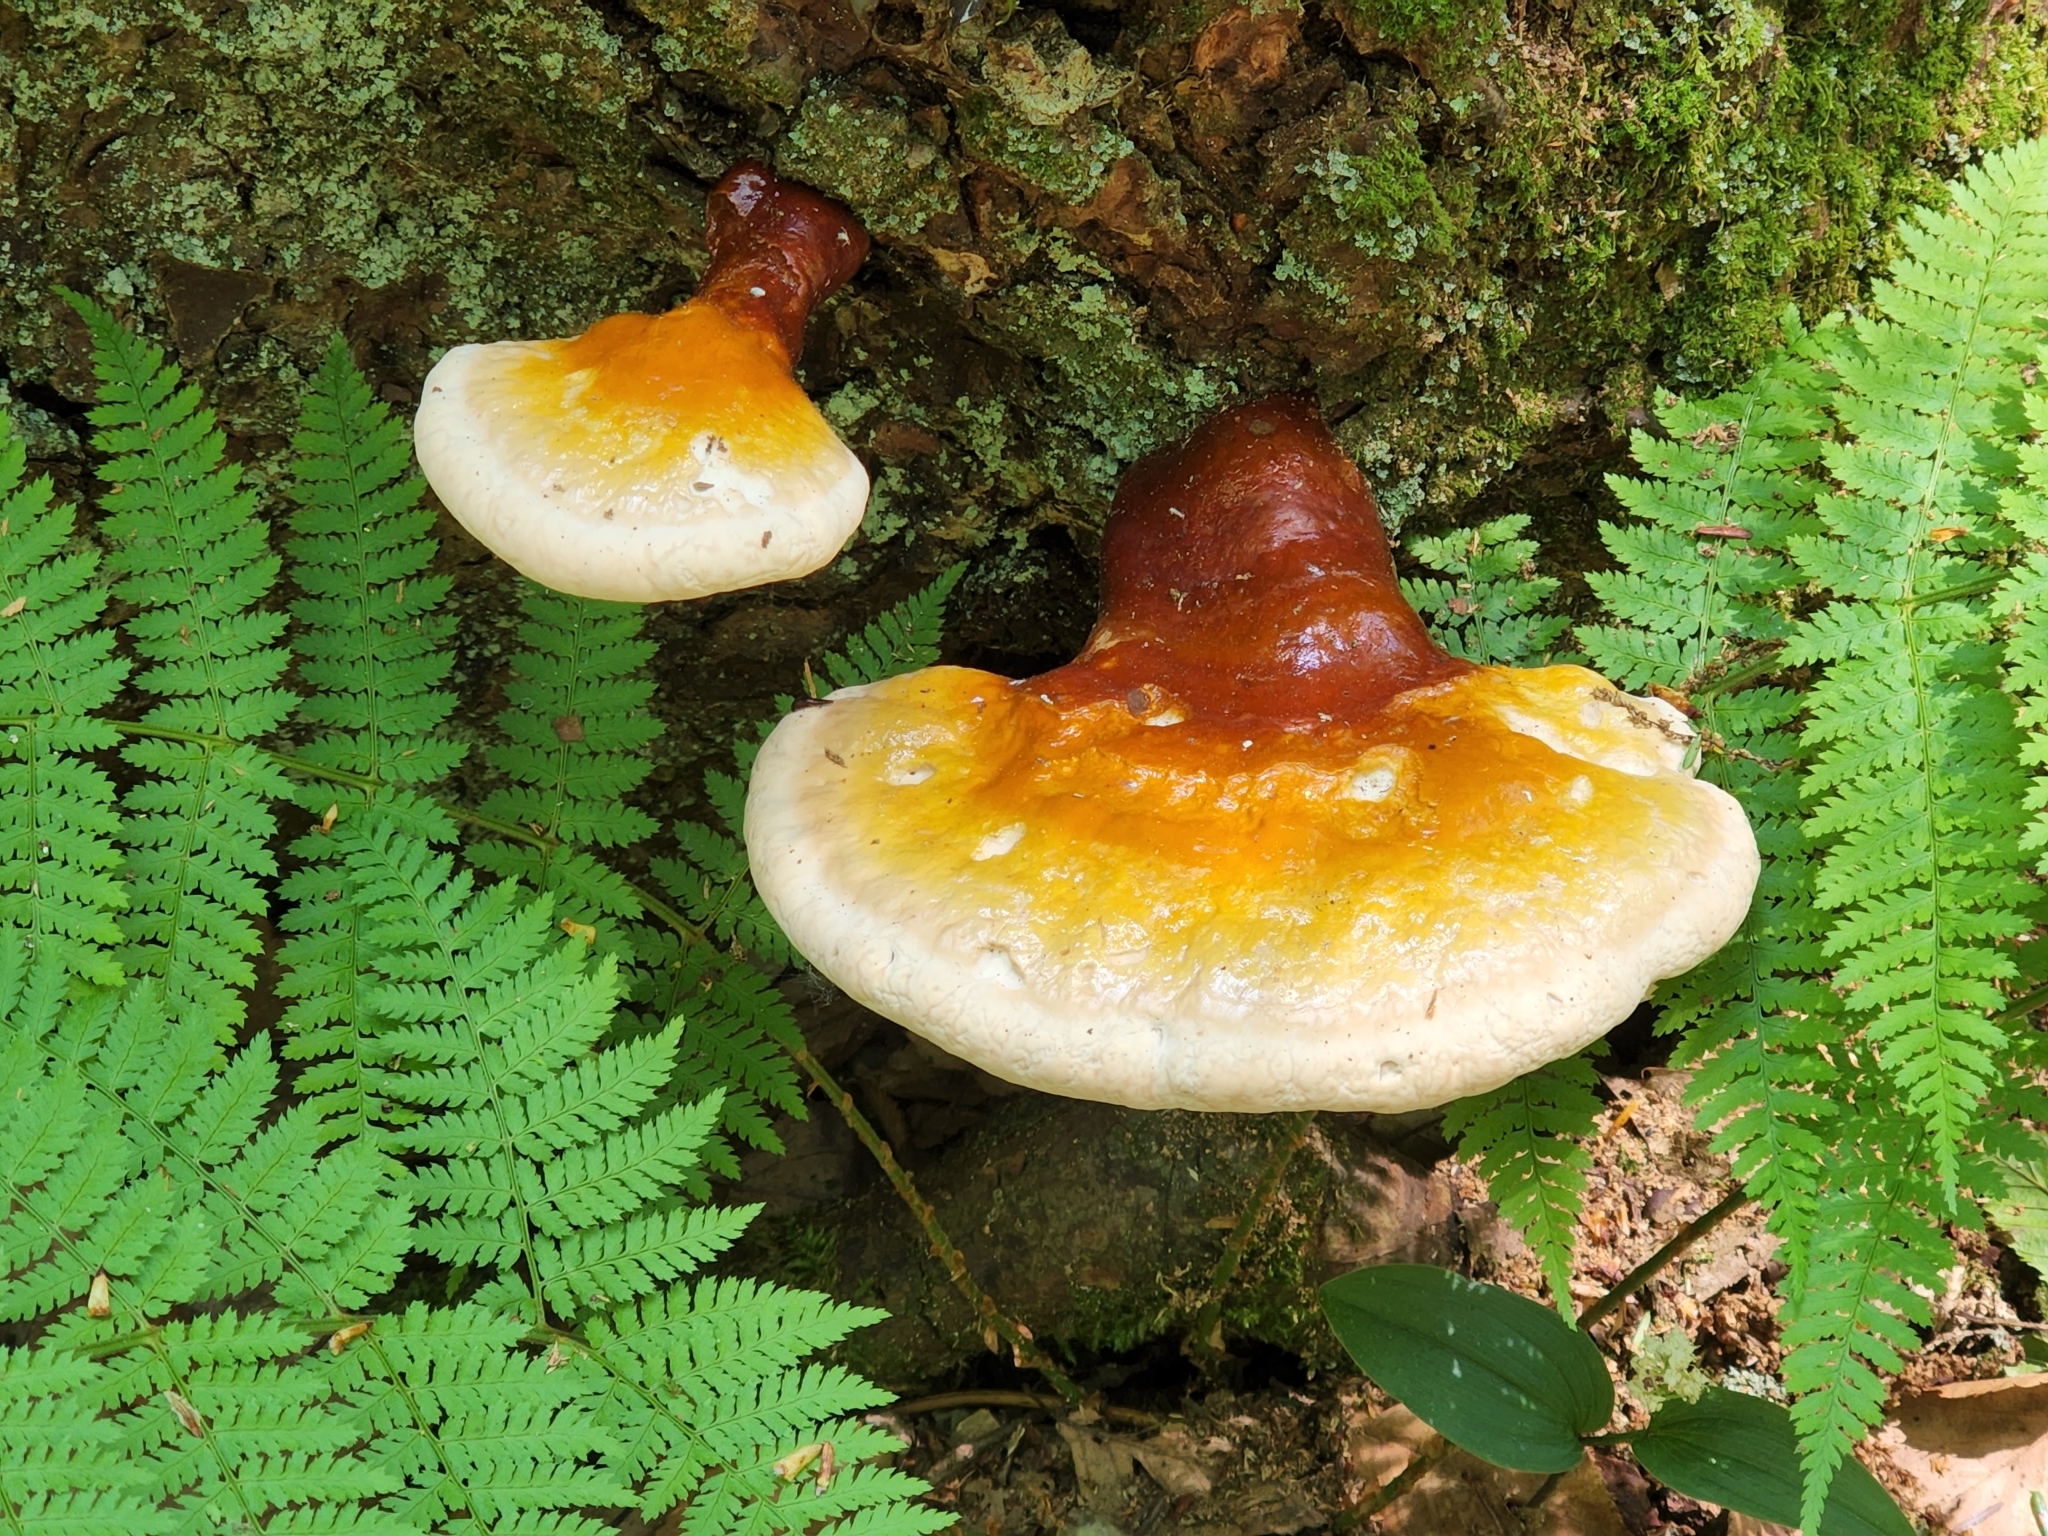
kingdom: Fungi
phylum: Basidiomycota
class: Agaricomycetes
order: Polyporales
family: Polyporaceae
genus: Ganoderma
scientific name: Ganoderma tsugae
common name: Hemlock varnish shelf
